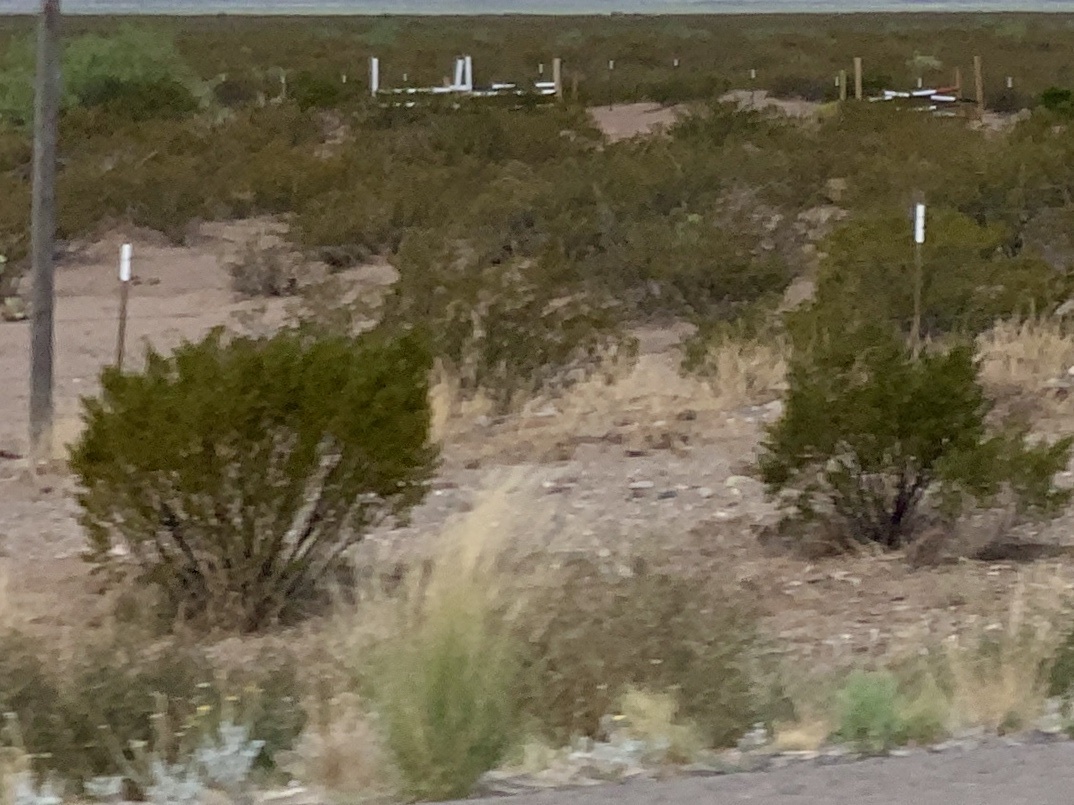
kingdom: Plantae
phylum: Tracheophyta
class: Magnoliopsida
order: Zygophyllales
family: Zygophyllaceae
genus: Larrea
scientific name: Larrea tridentata
